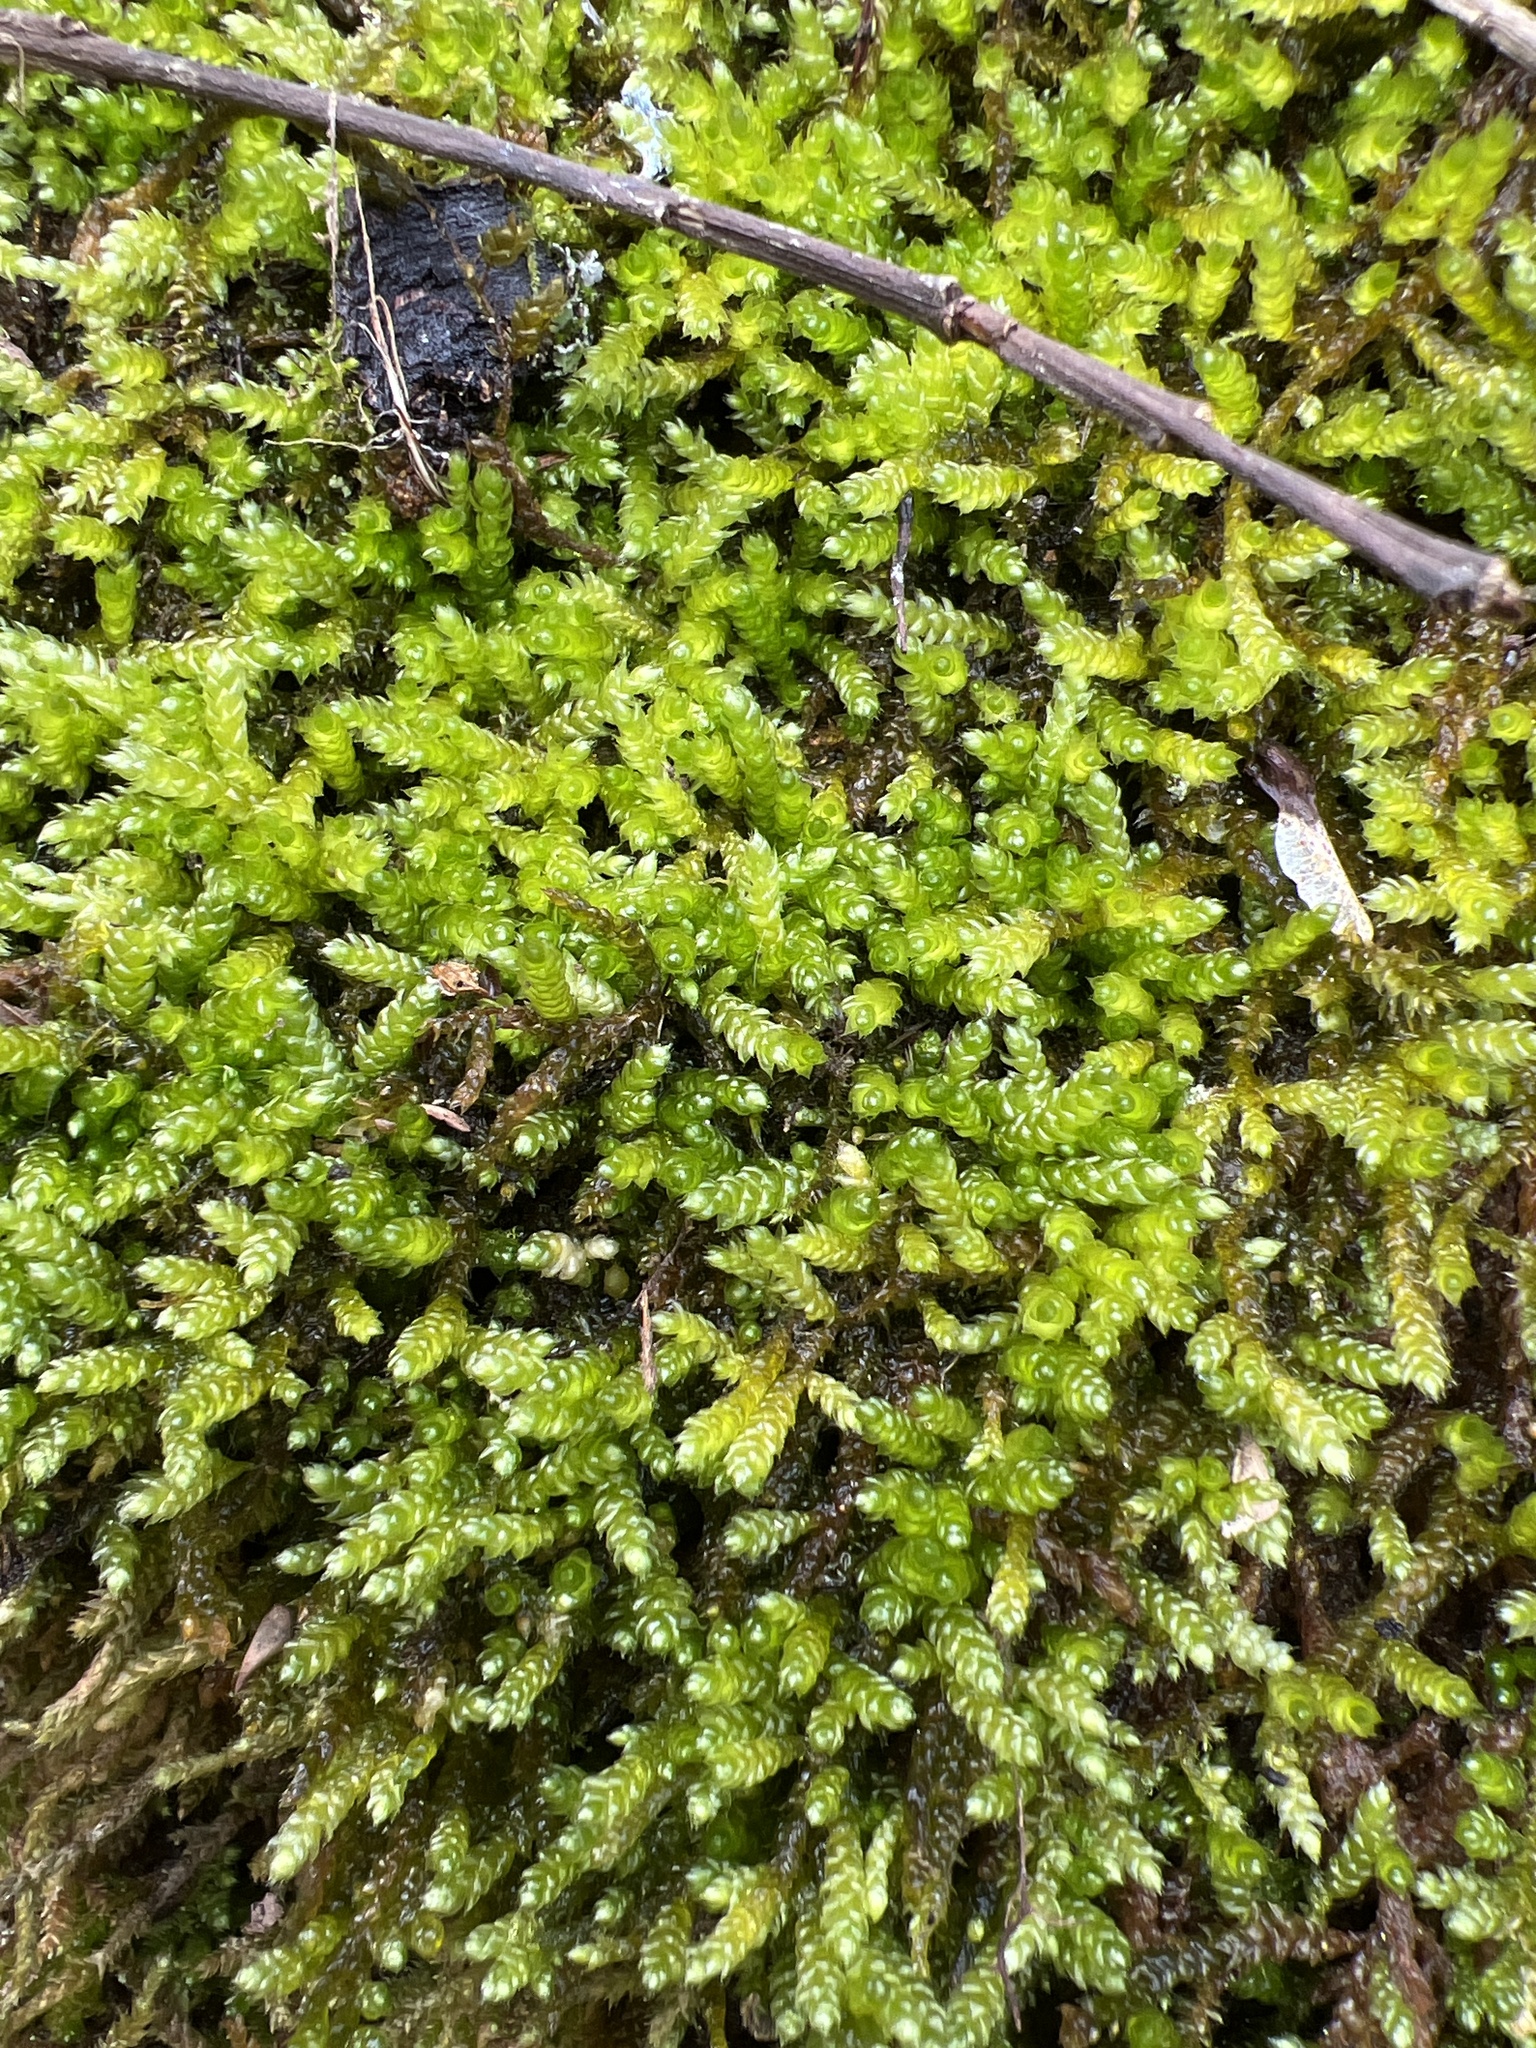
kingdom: Plantae
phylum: Bryophyta
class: Bryopsida
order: Hypnales
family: Brachytheciaceae
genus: Bryoandersonia
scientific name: Bryoandersonia illecebra
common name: Spoon-leaved moss
